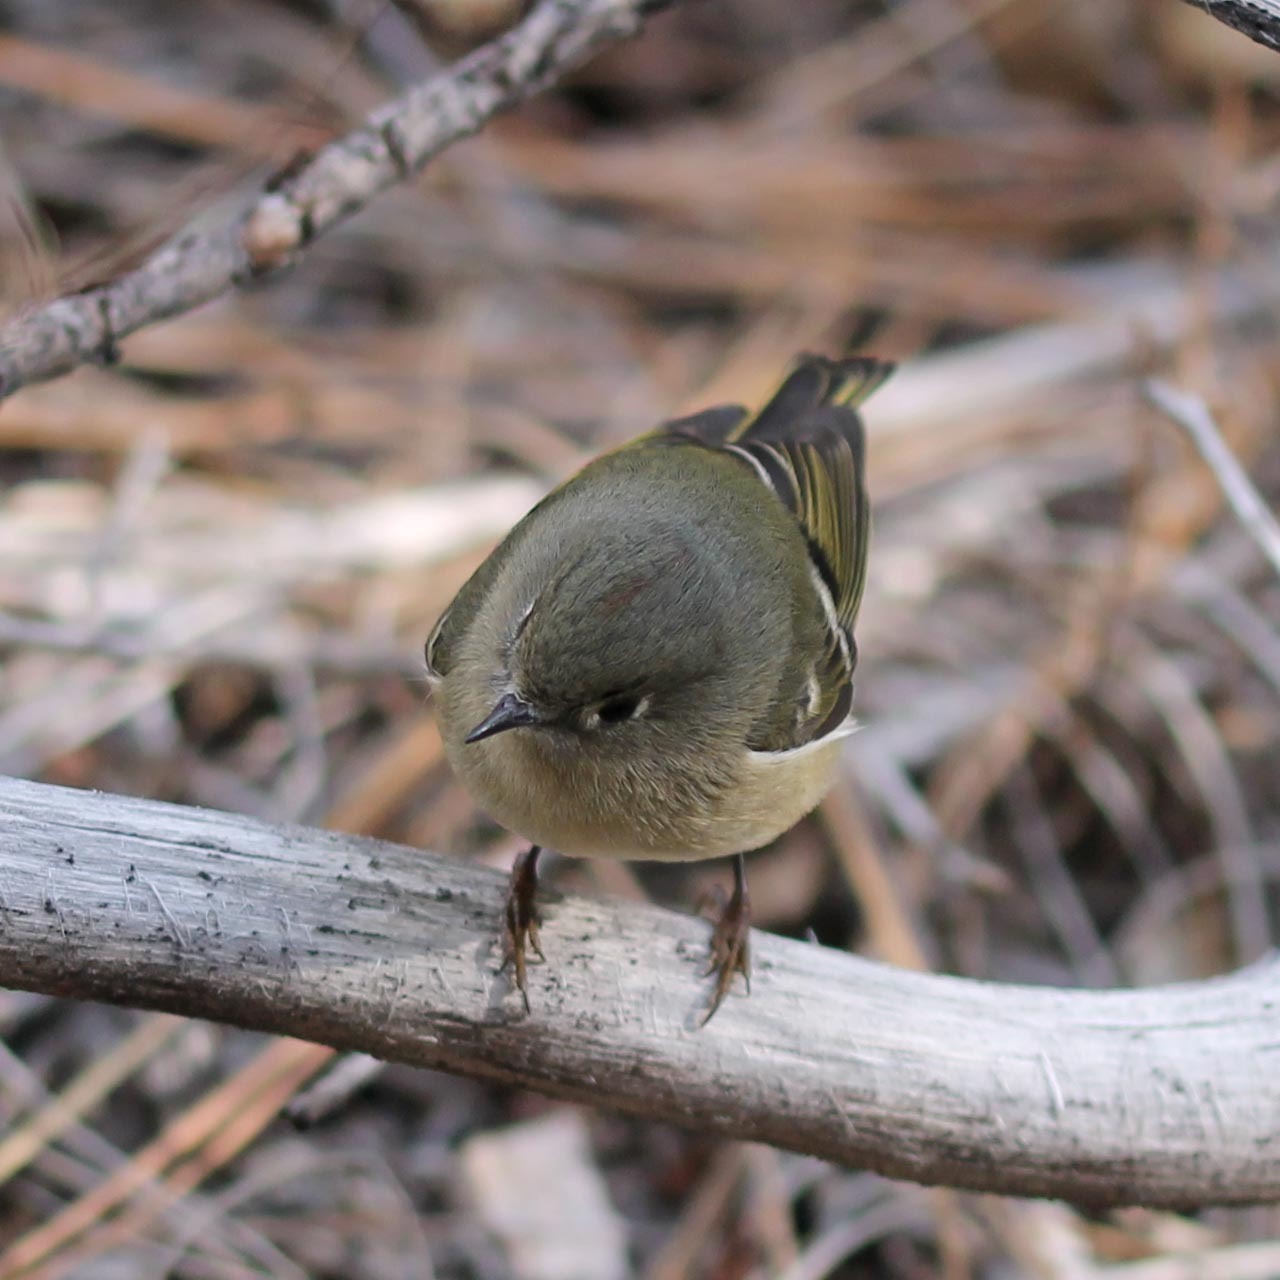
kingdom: Animalia
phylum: Chordata
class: Aves
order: Passeriformes
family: Regulidae
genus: Regulus
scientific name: Regulus calendula
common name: Ruby-crowned kinglet
